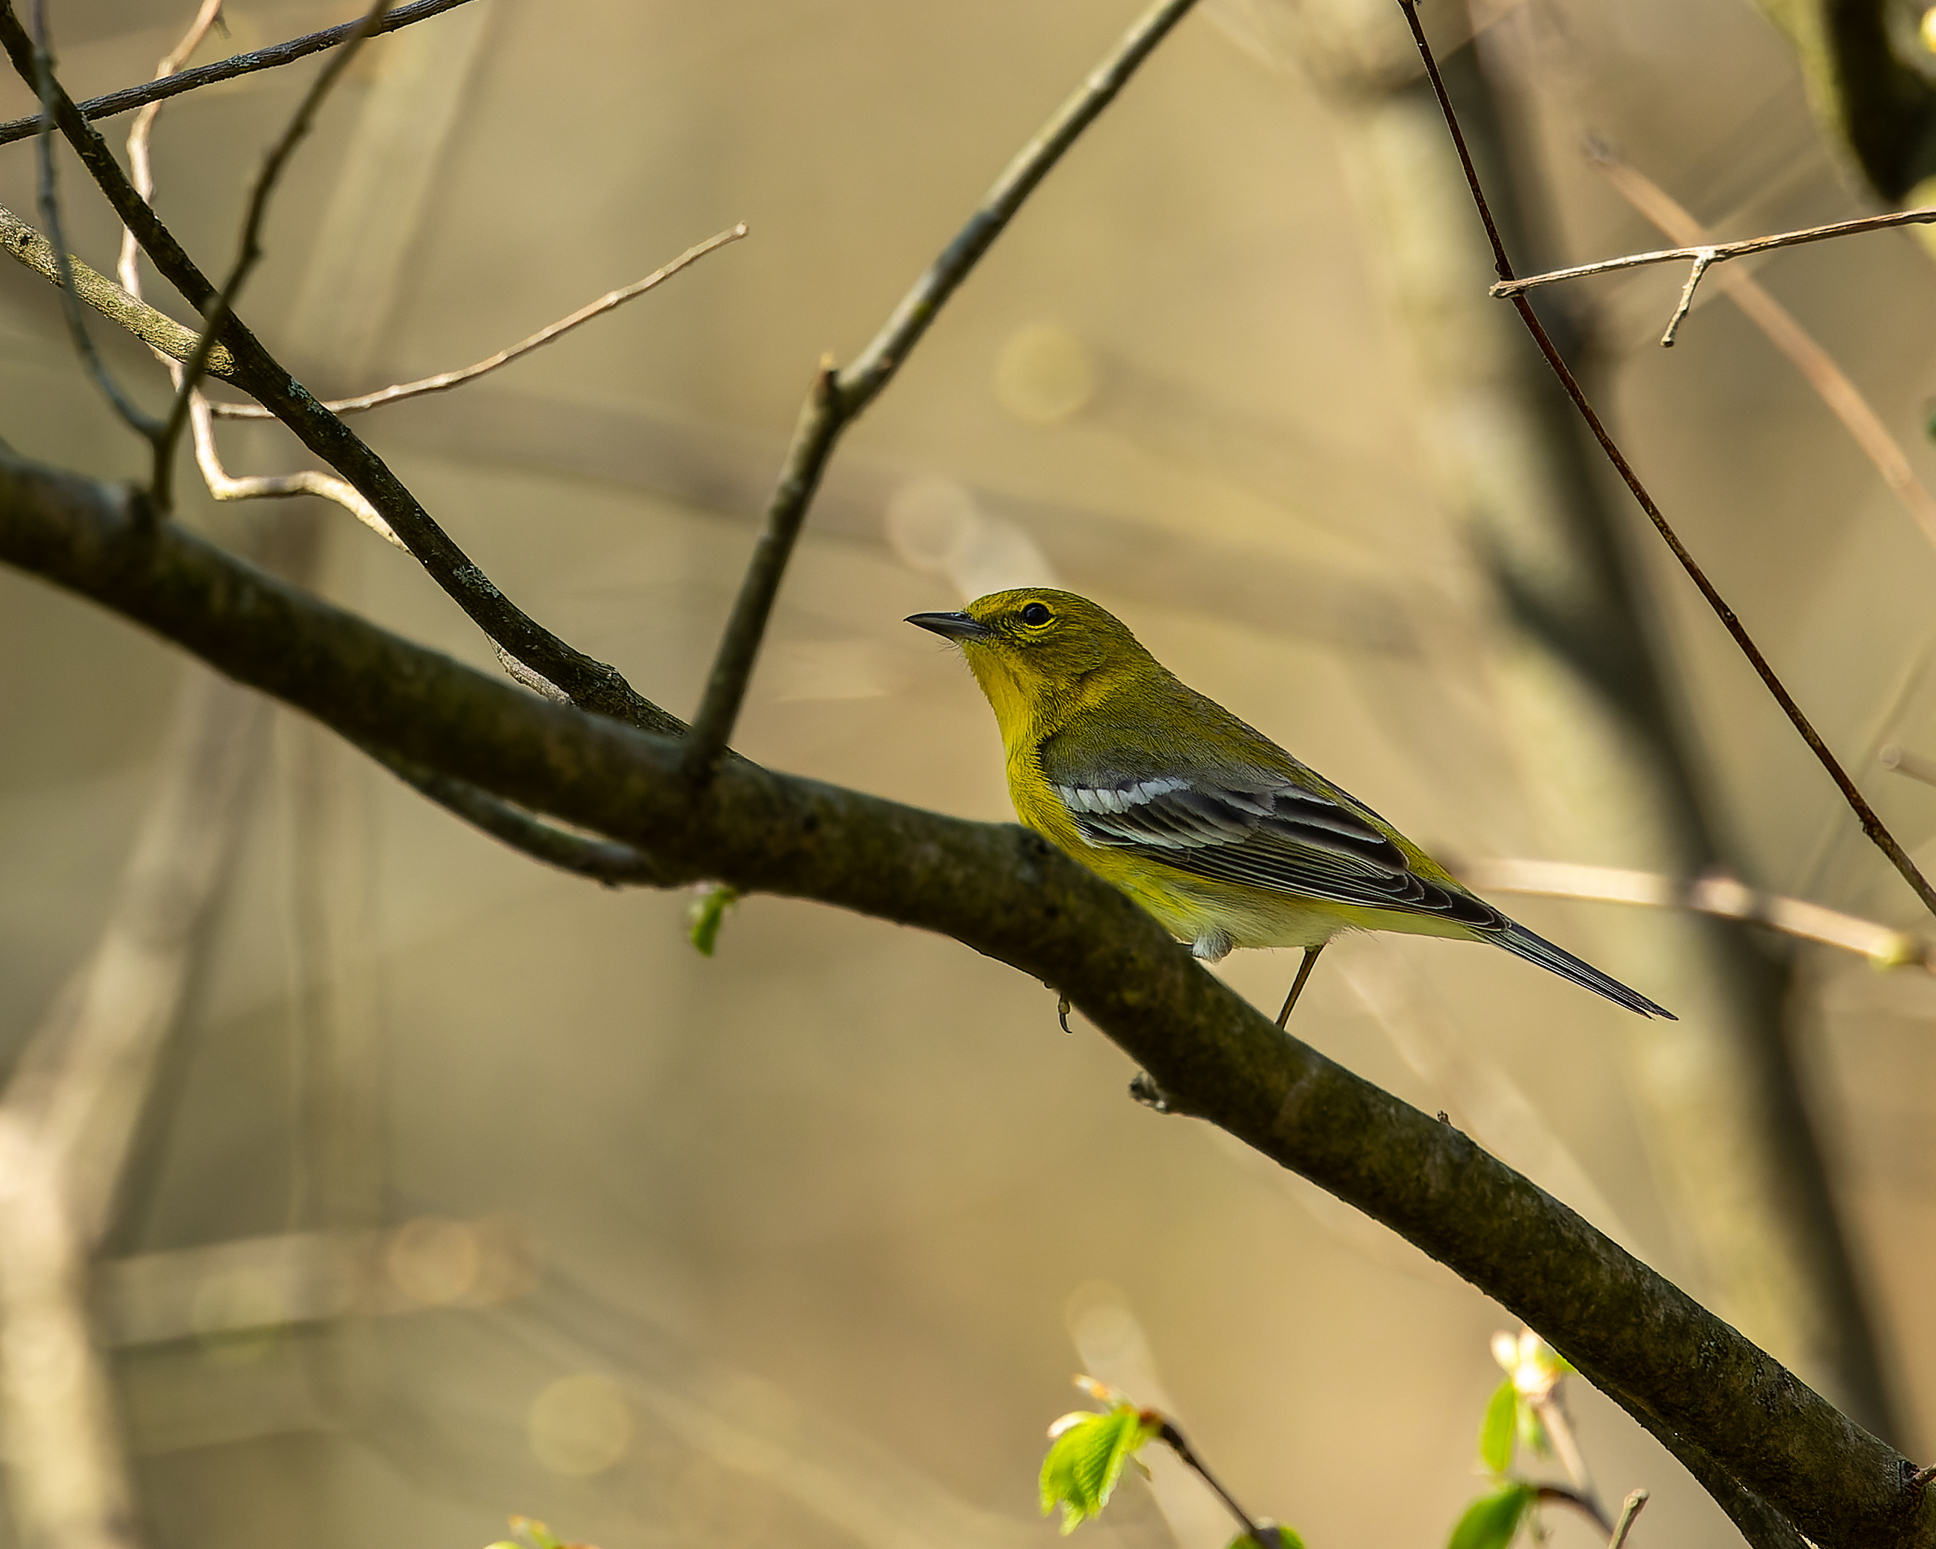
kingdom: Animalia
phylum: Chordata
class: Aves
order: Passeriformes
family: Parulidae
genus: Setophaga
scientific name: Setophaga pinus
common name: Pine warbler
